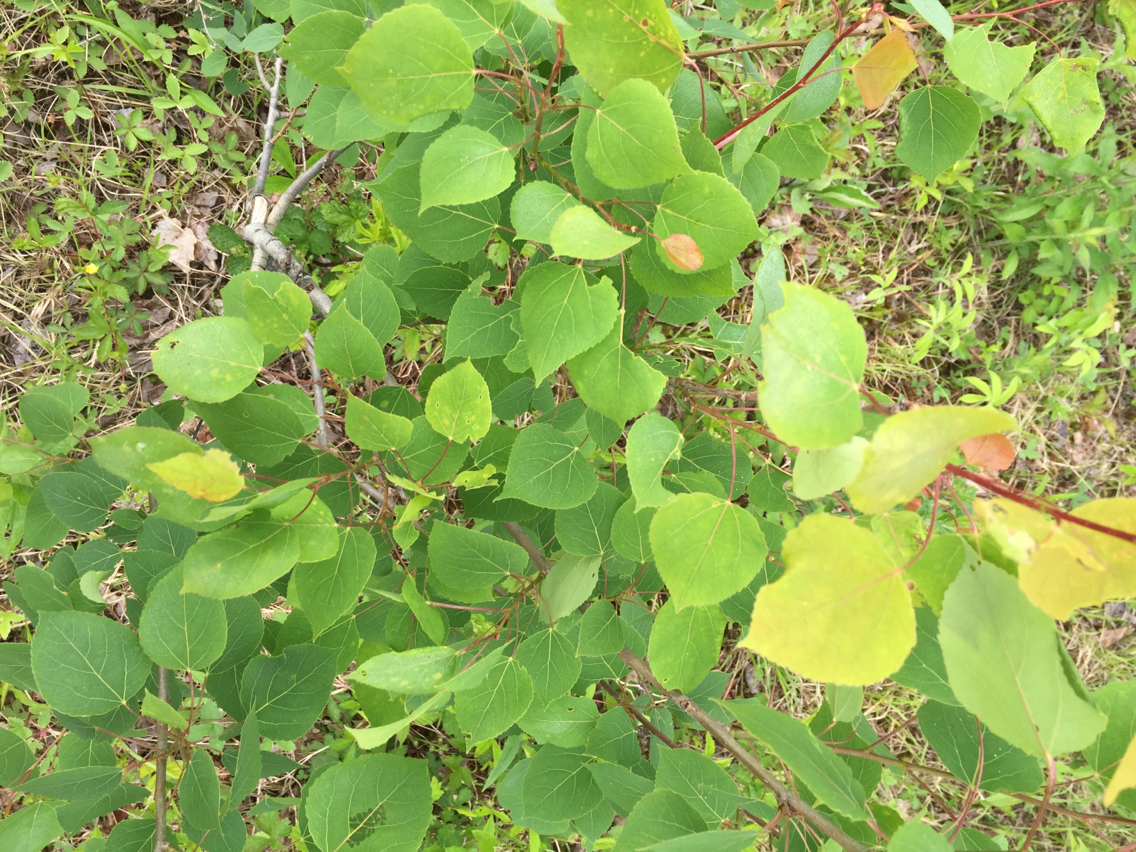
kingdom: Plantae
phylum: Tracheophyta
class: Magnoliopsida
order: Malpighiales
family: Salicaceae
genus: Populus
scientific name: Populus tremuloides
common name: Quaking aspen
